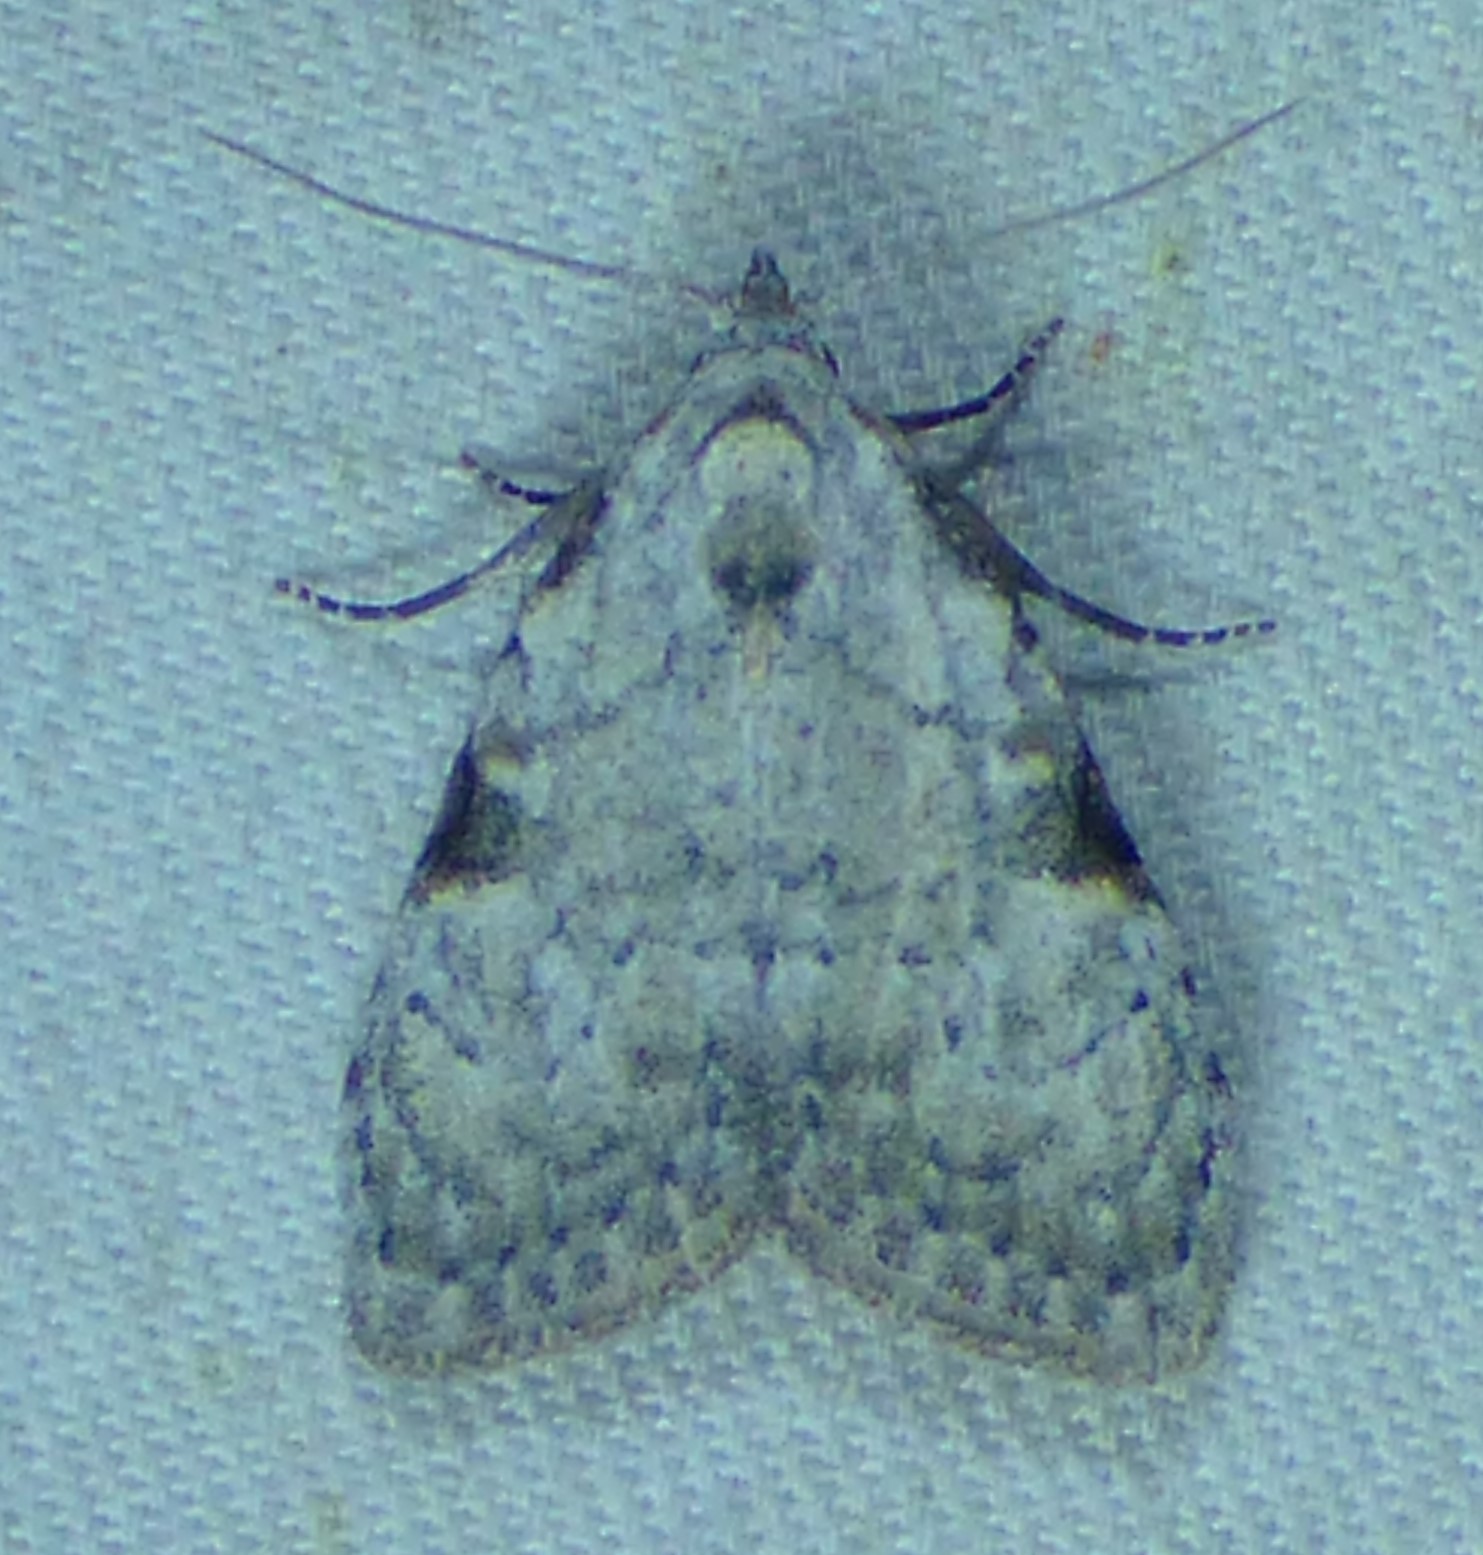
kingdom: Animalia
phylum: Arthropoda
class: Insecta
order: Lepidoptera
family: Nolidae
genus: Meganola
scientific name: Meganola minuscula
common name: Confused meganola moth
